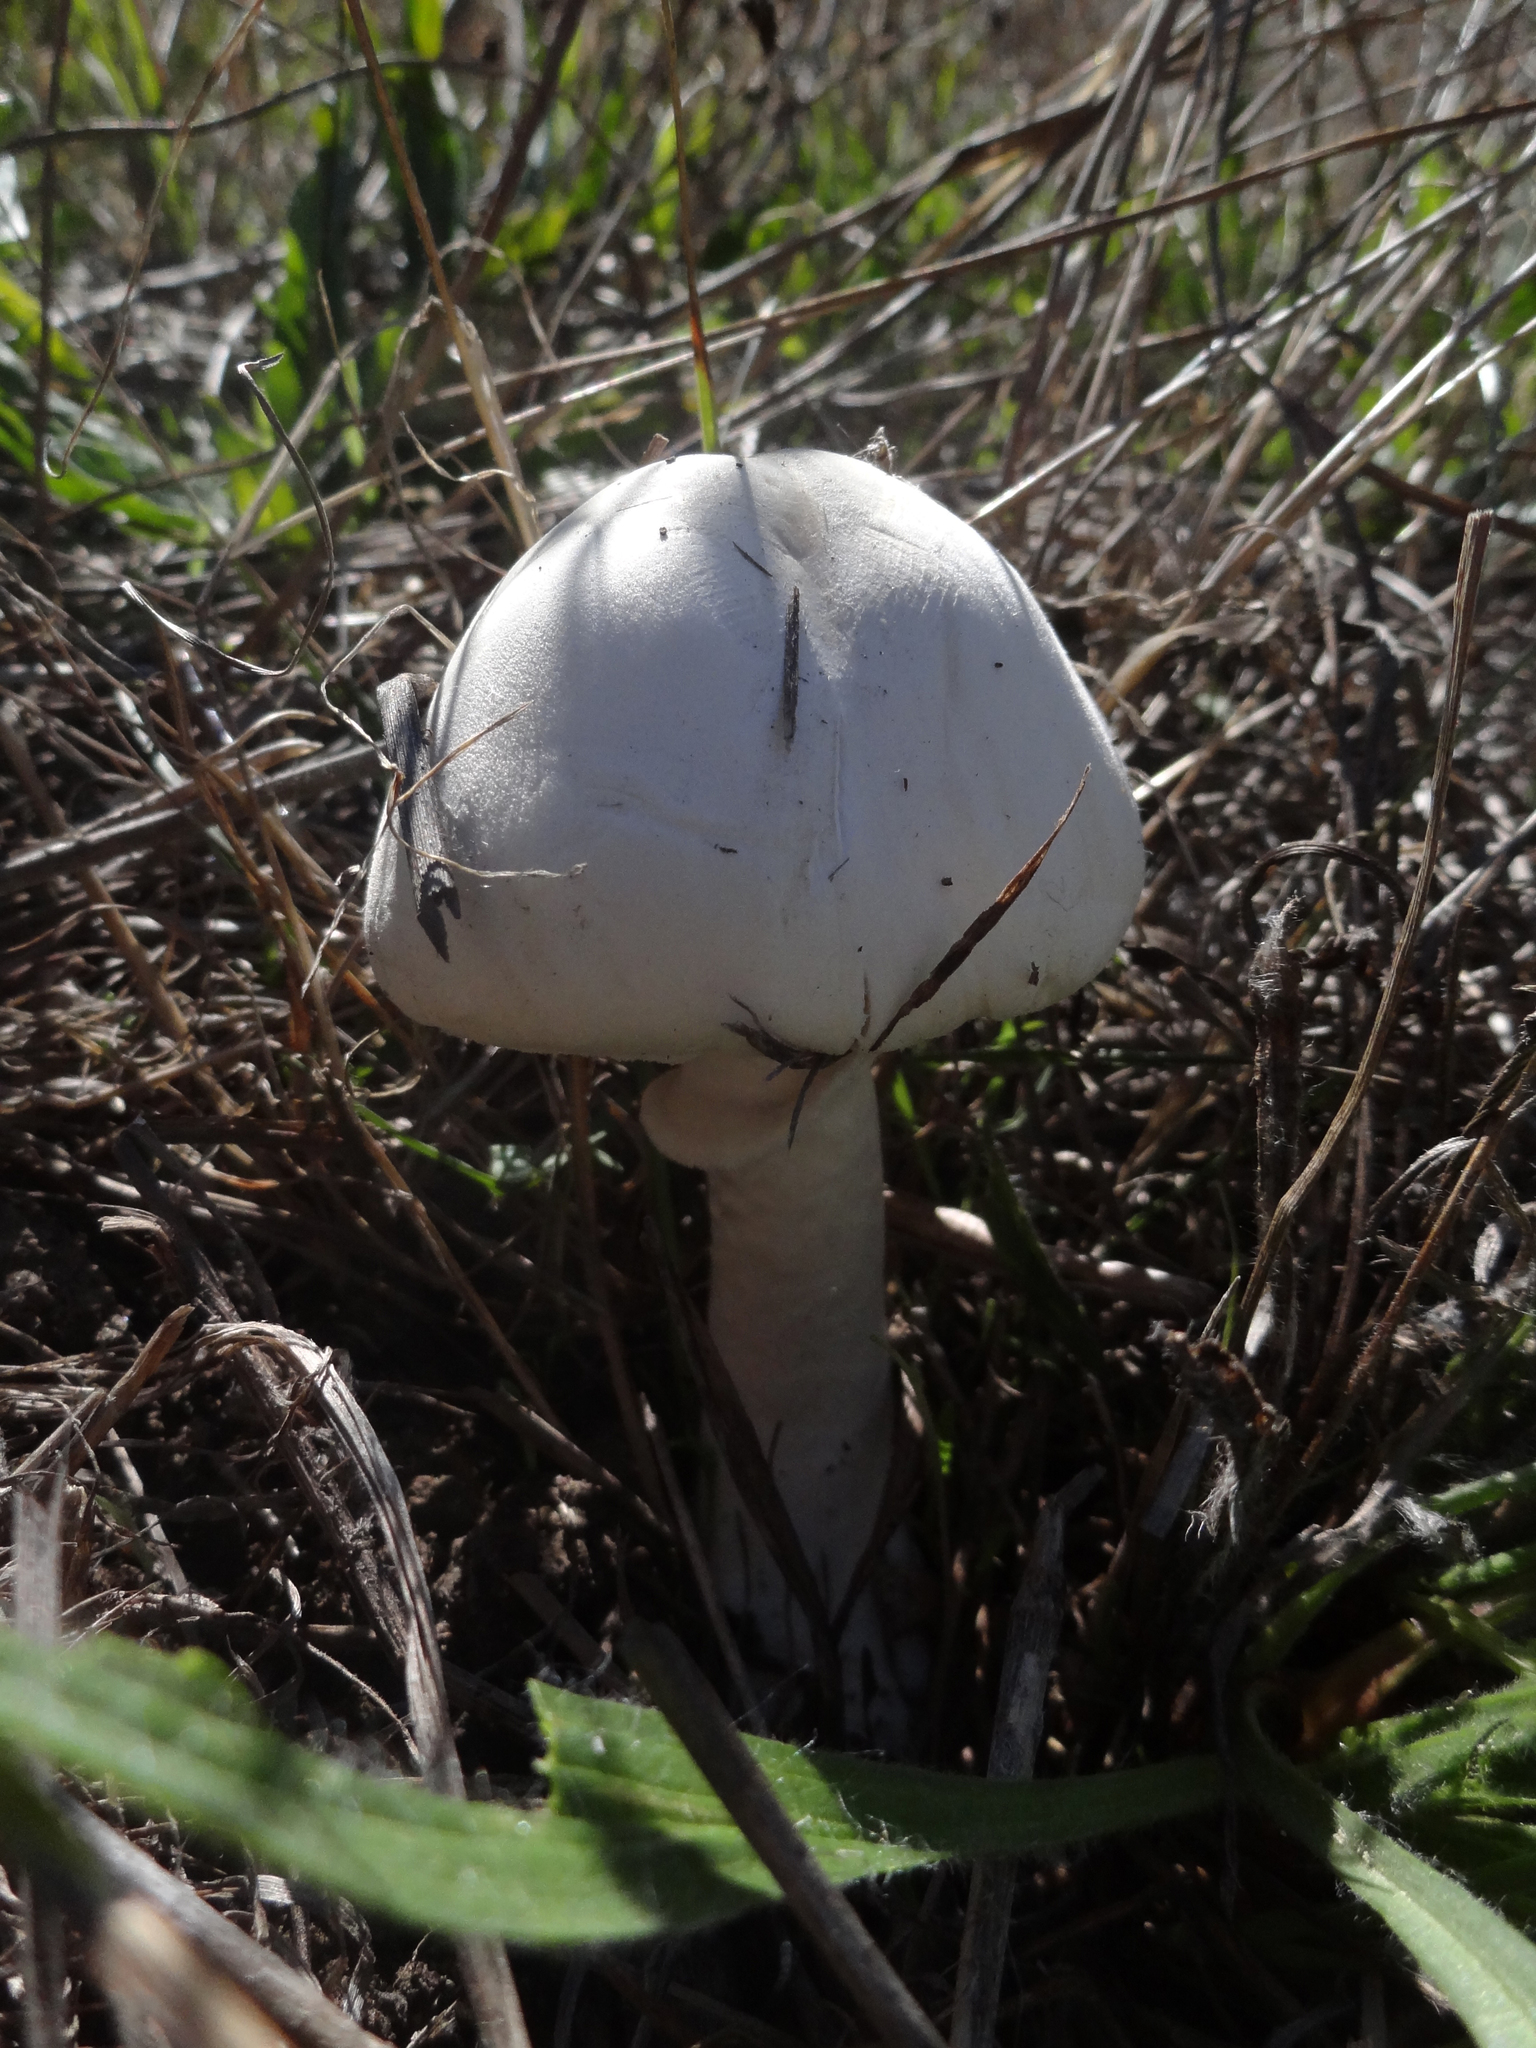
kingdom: Fungi
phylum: Basidiomycota
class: Agaricomycetes
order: Agaricales
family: Agaricaceae
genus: Leucoagaricus
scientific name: Leucoagaricus leucothites
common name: White dapperling
